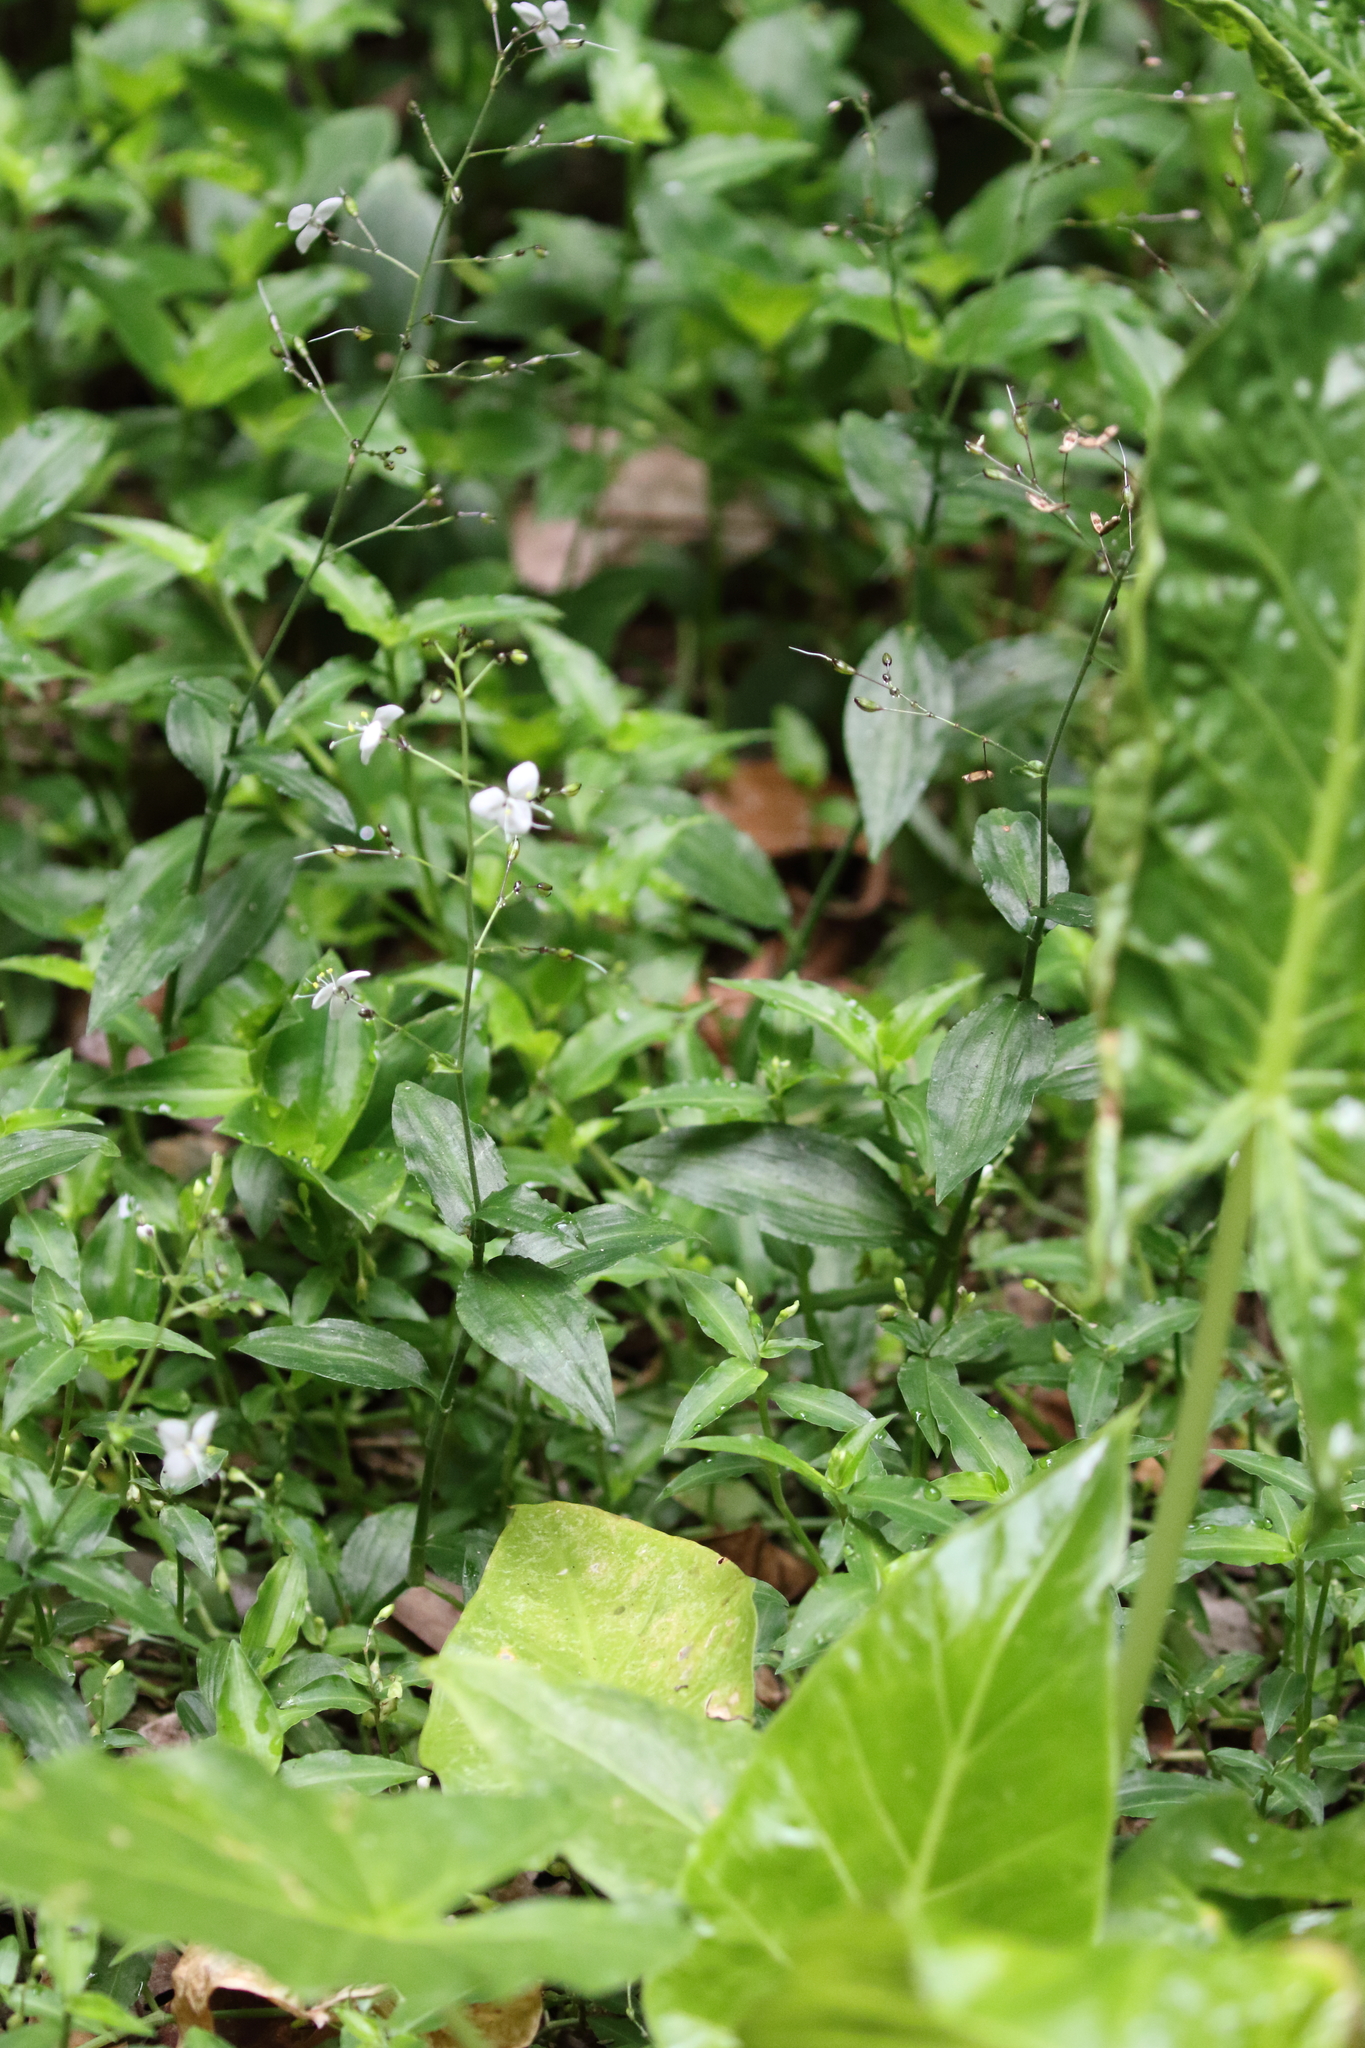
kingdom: Plantae
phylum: Tracheophyta
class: Liliopsida
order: Commelinales
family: Commelinaceae
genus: Aneilema
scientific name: Aneilema acuminatum
